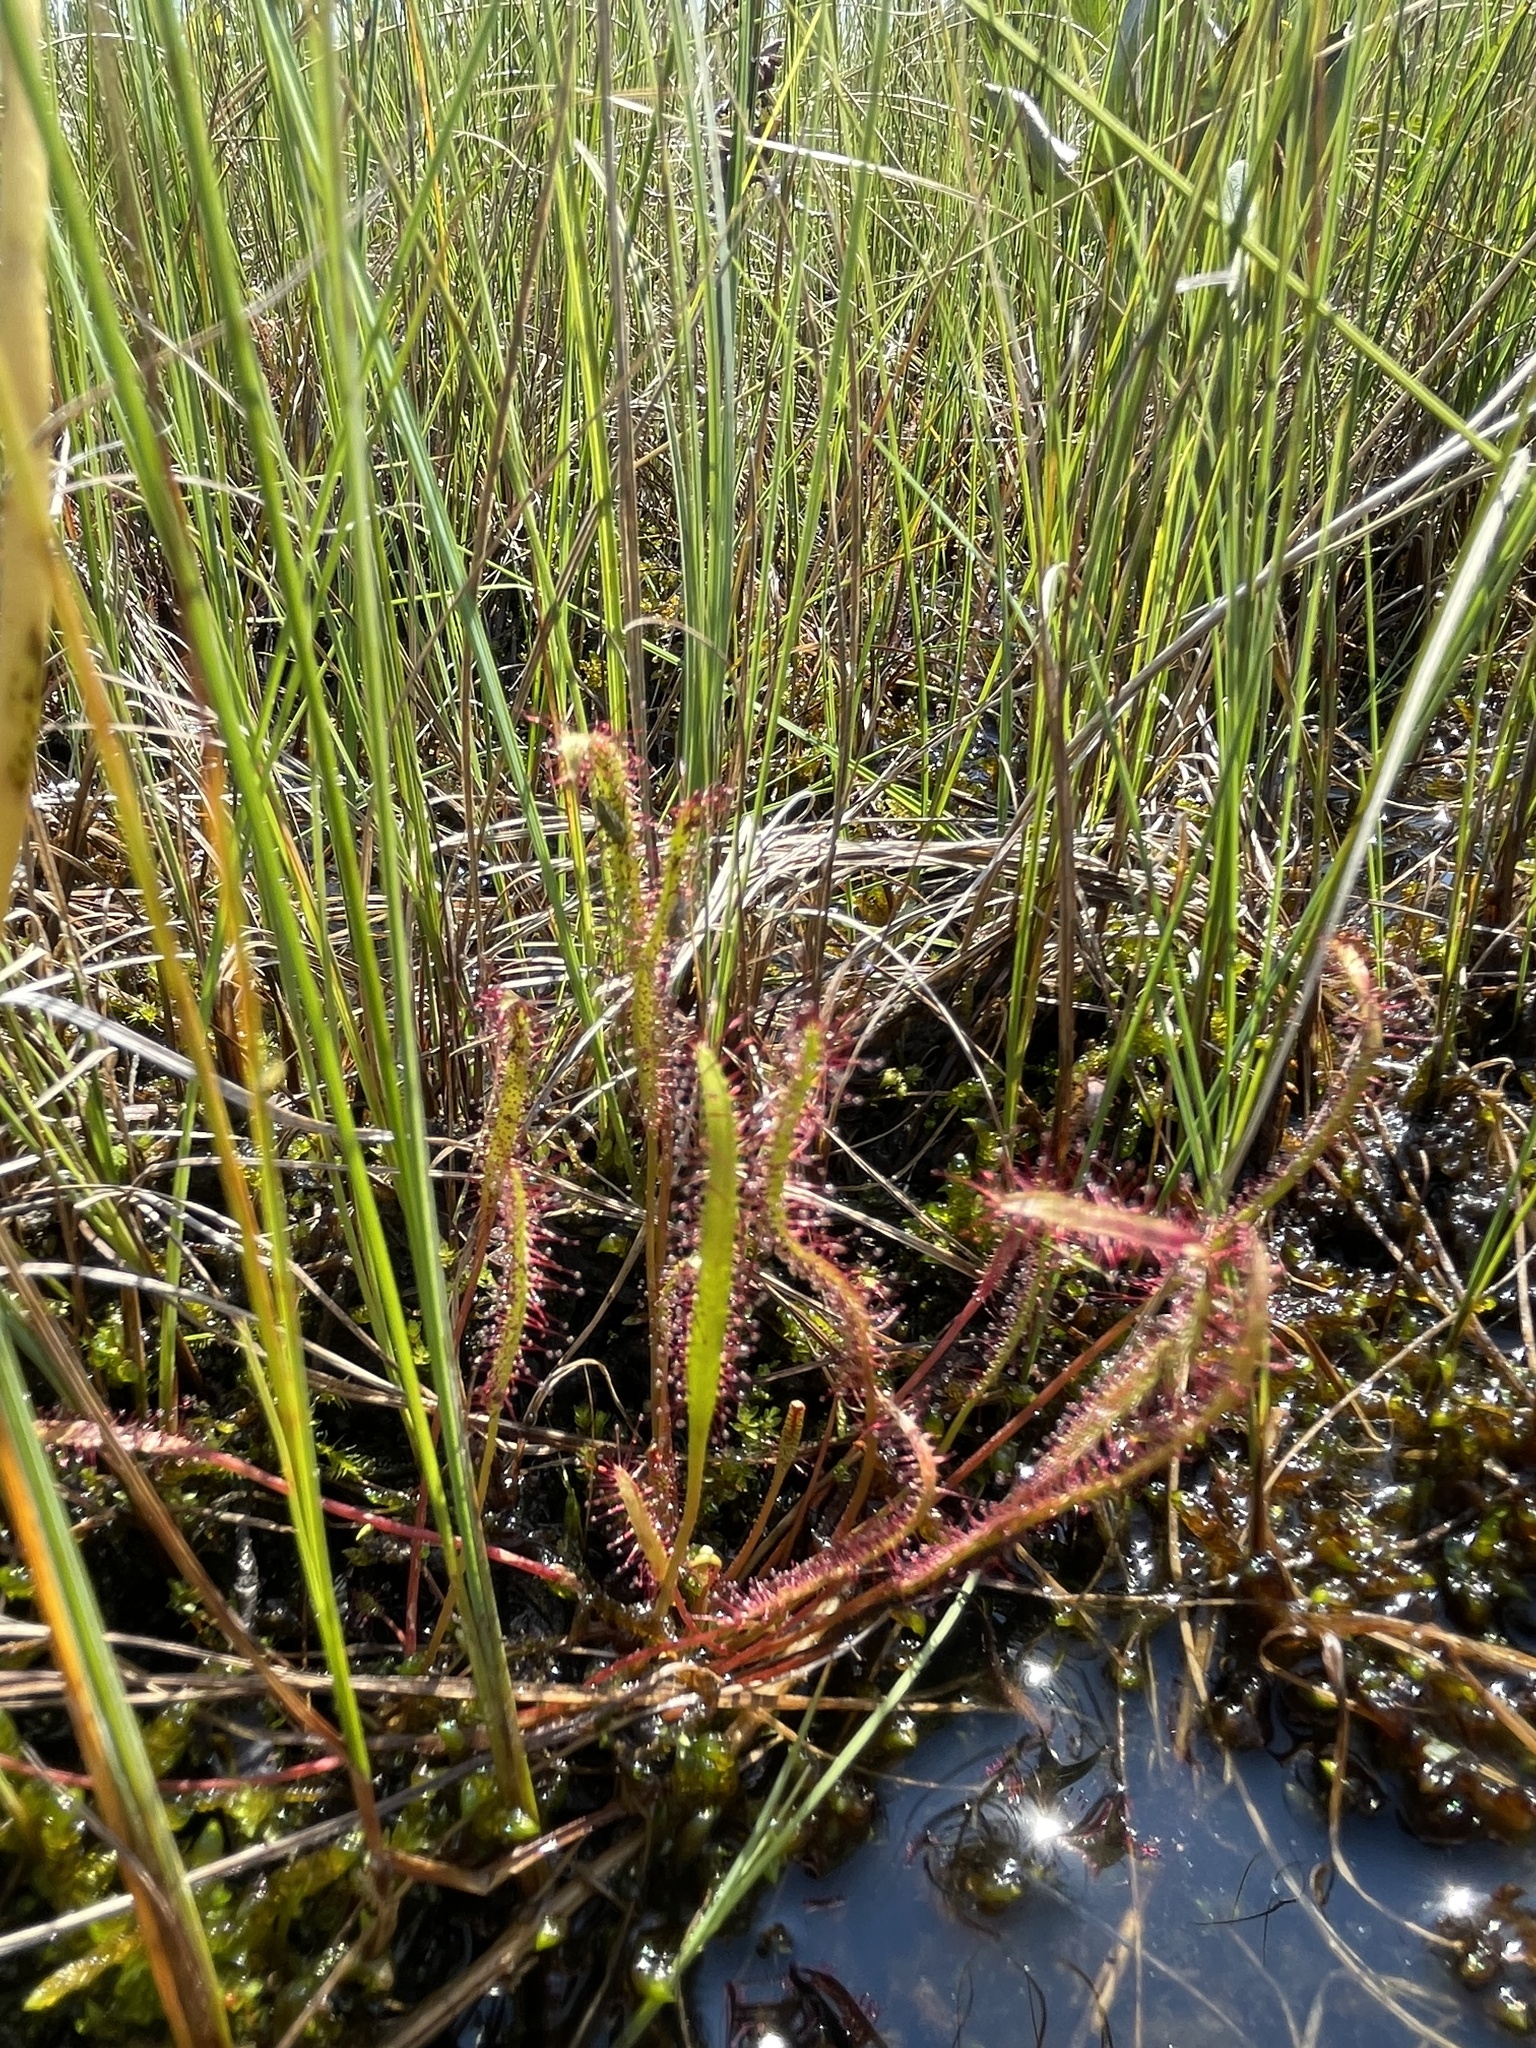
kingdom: Plantae
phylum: Tracheophyta
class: Magnoliopsida
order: Caryophyllales
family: Droseraceae
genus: Drosera
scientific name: Drosera linearis
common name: Linear-leaved sundew
